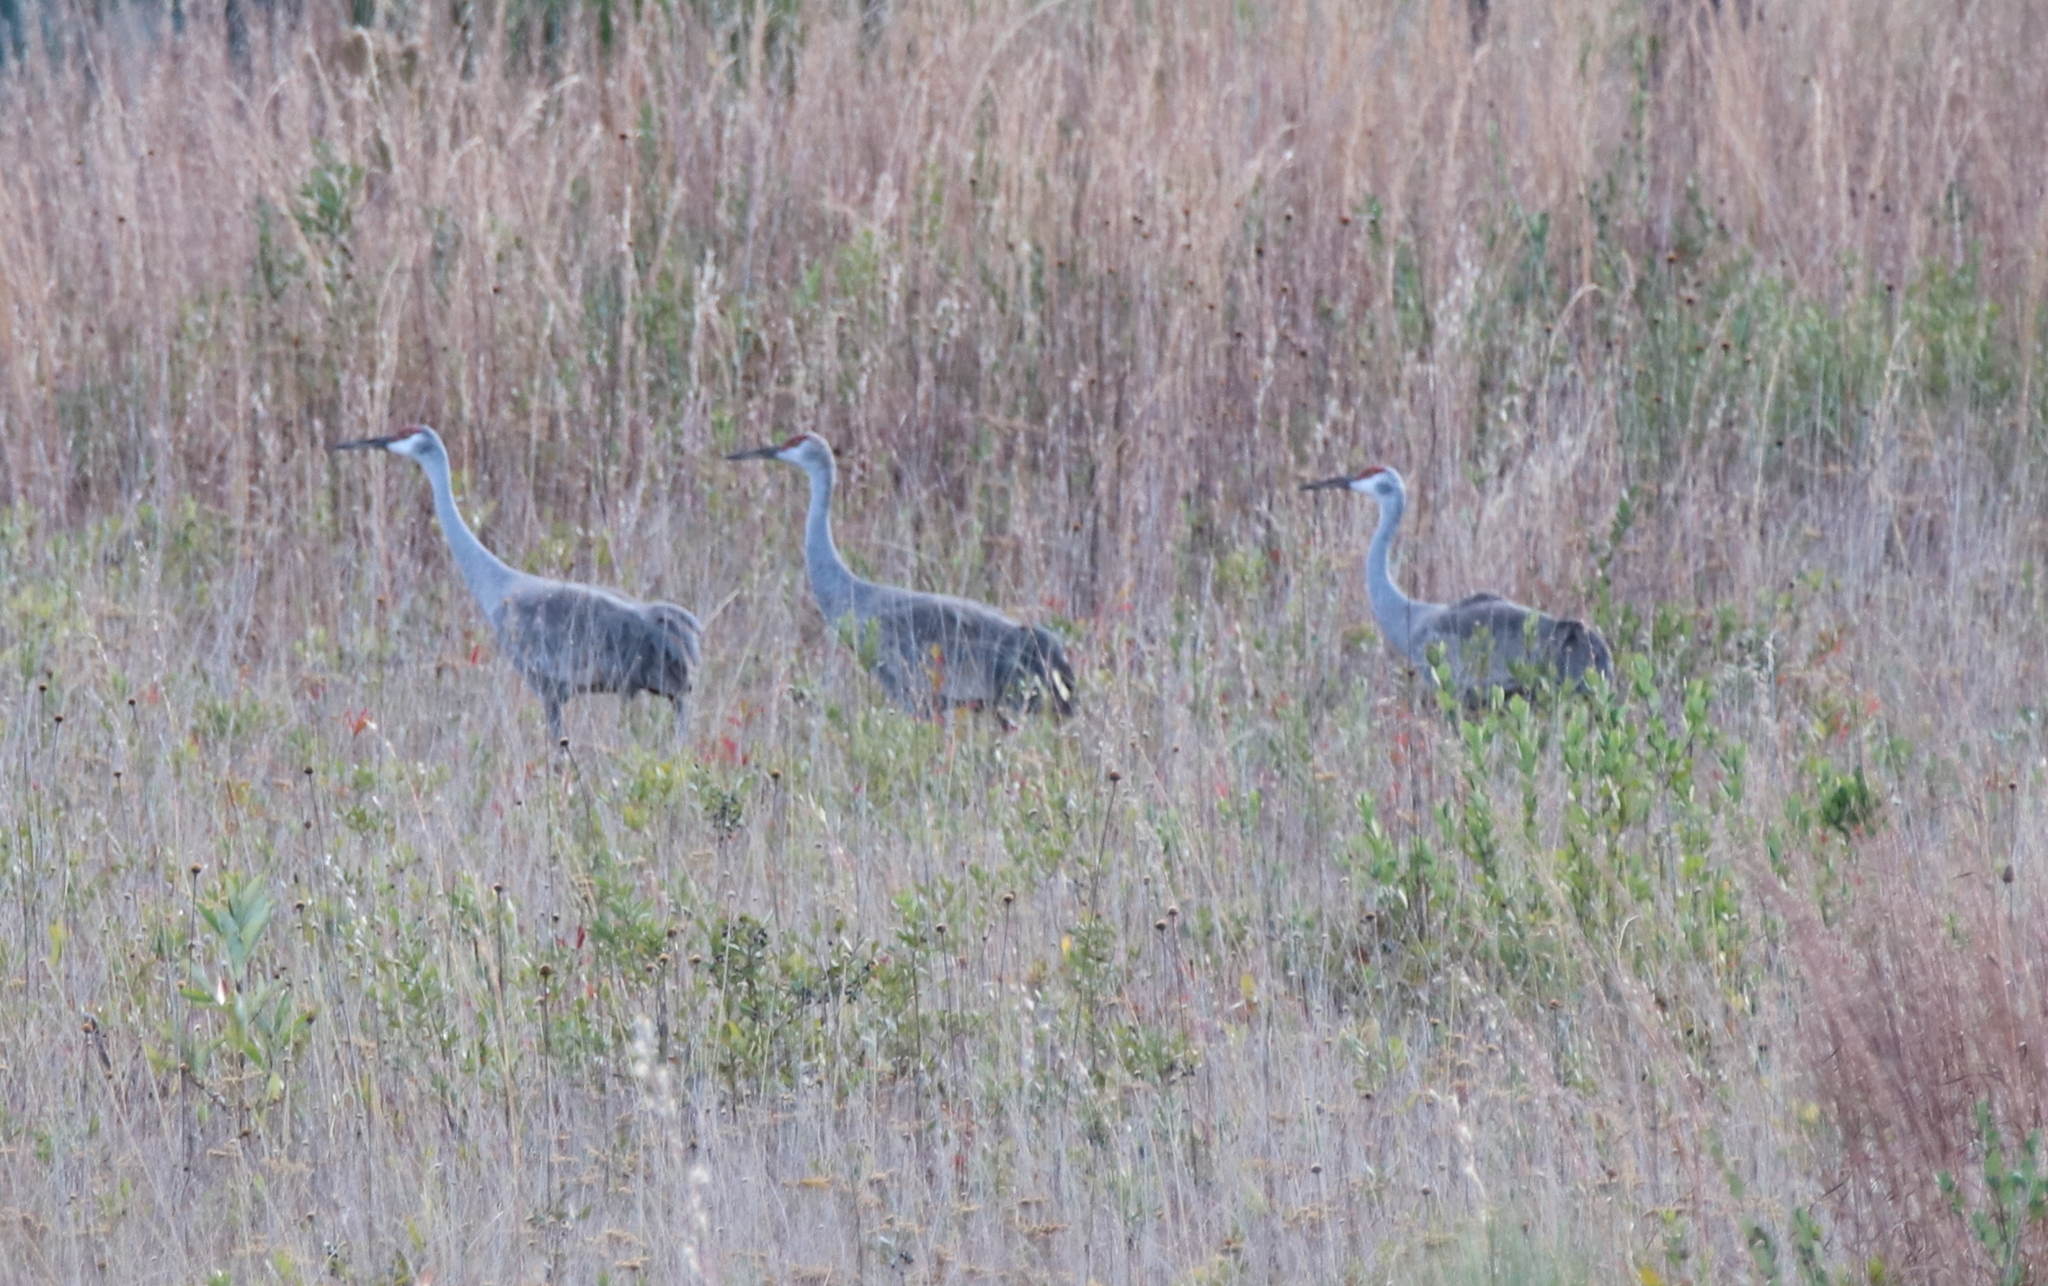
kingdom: Animalia
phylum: Chordata
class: Aves
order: Gruiformes
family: Gruidae
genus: Grus
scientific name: Grus canadensis
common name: Sandhill crane
